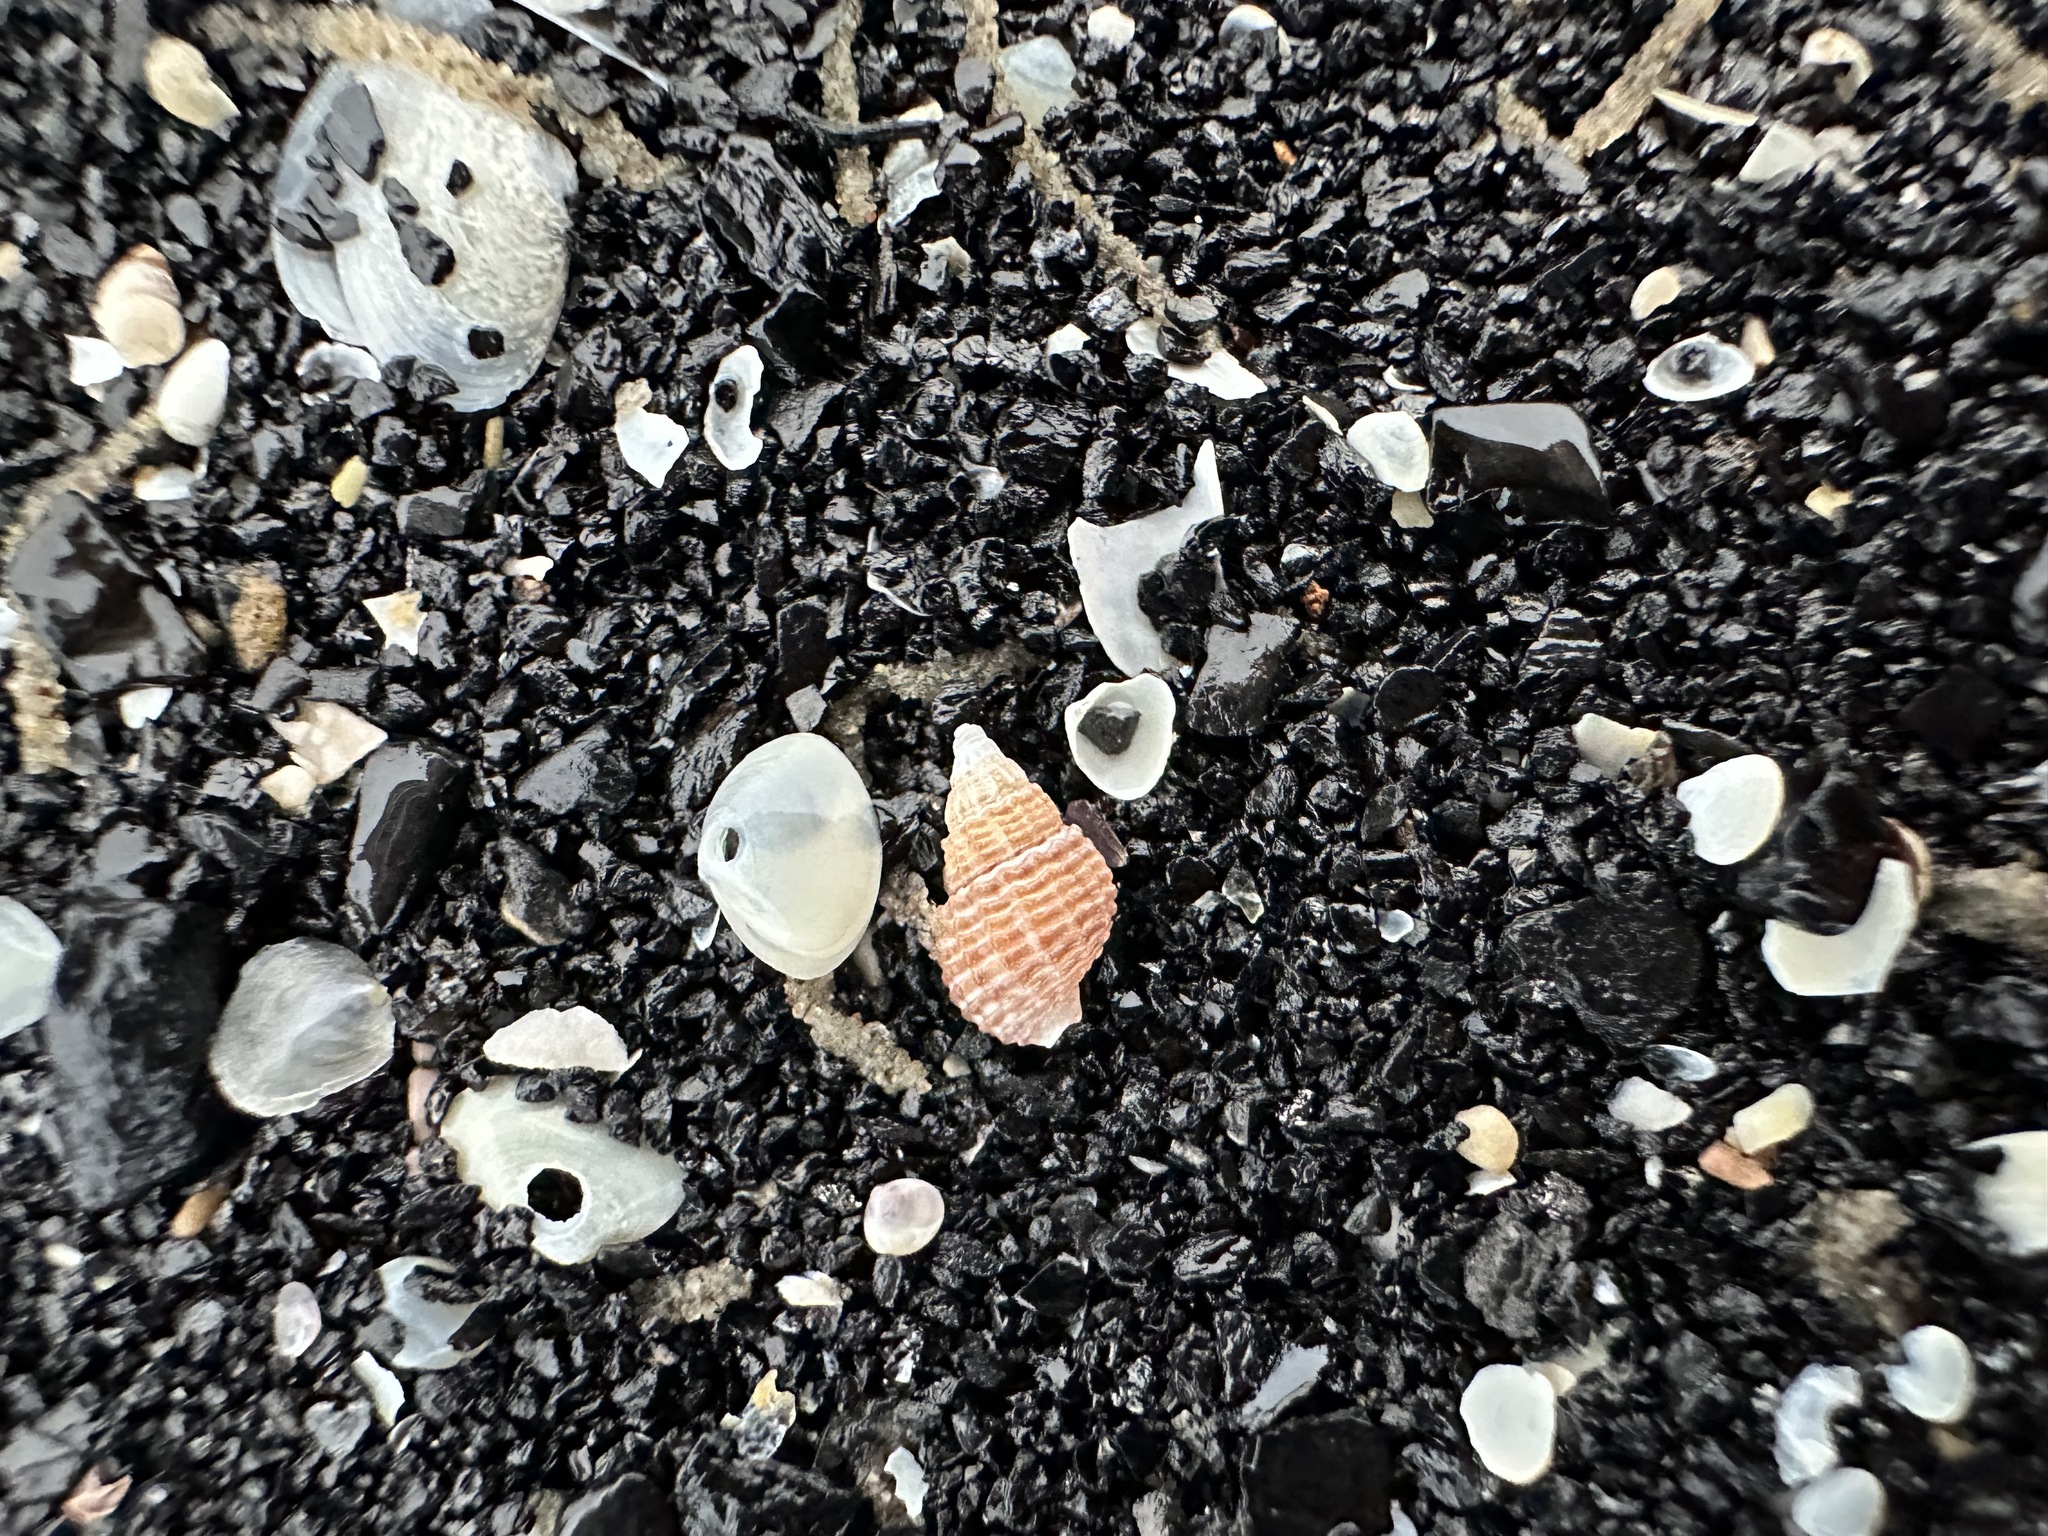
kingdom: Animalia
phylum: Mollusca
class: Gastropoda
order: Neogastropoda
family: Nassariidae
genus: Ilyanassa
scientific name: Ilyanassa trivittata
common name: Three-line mudsnail
